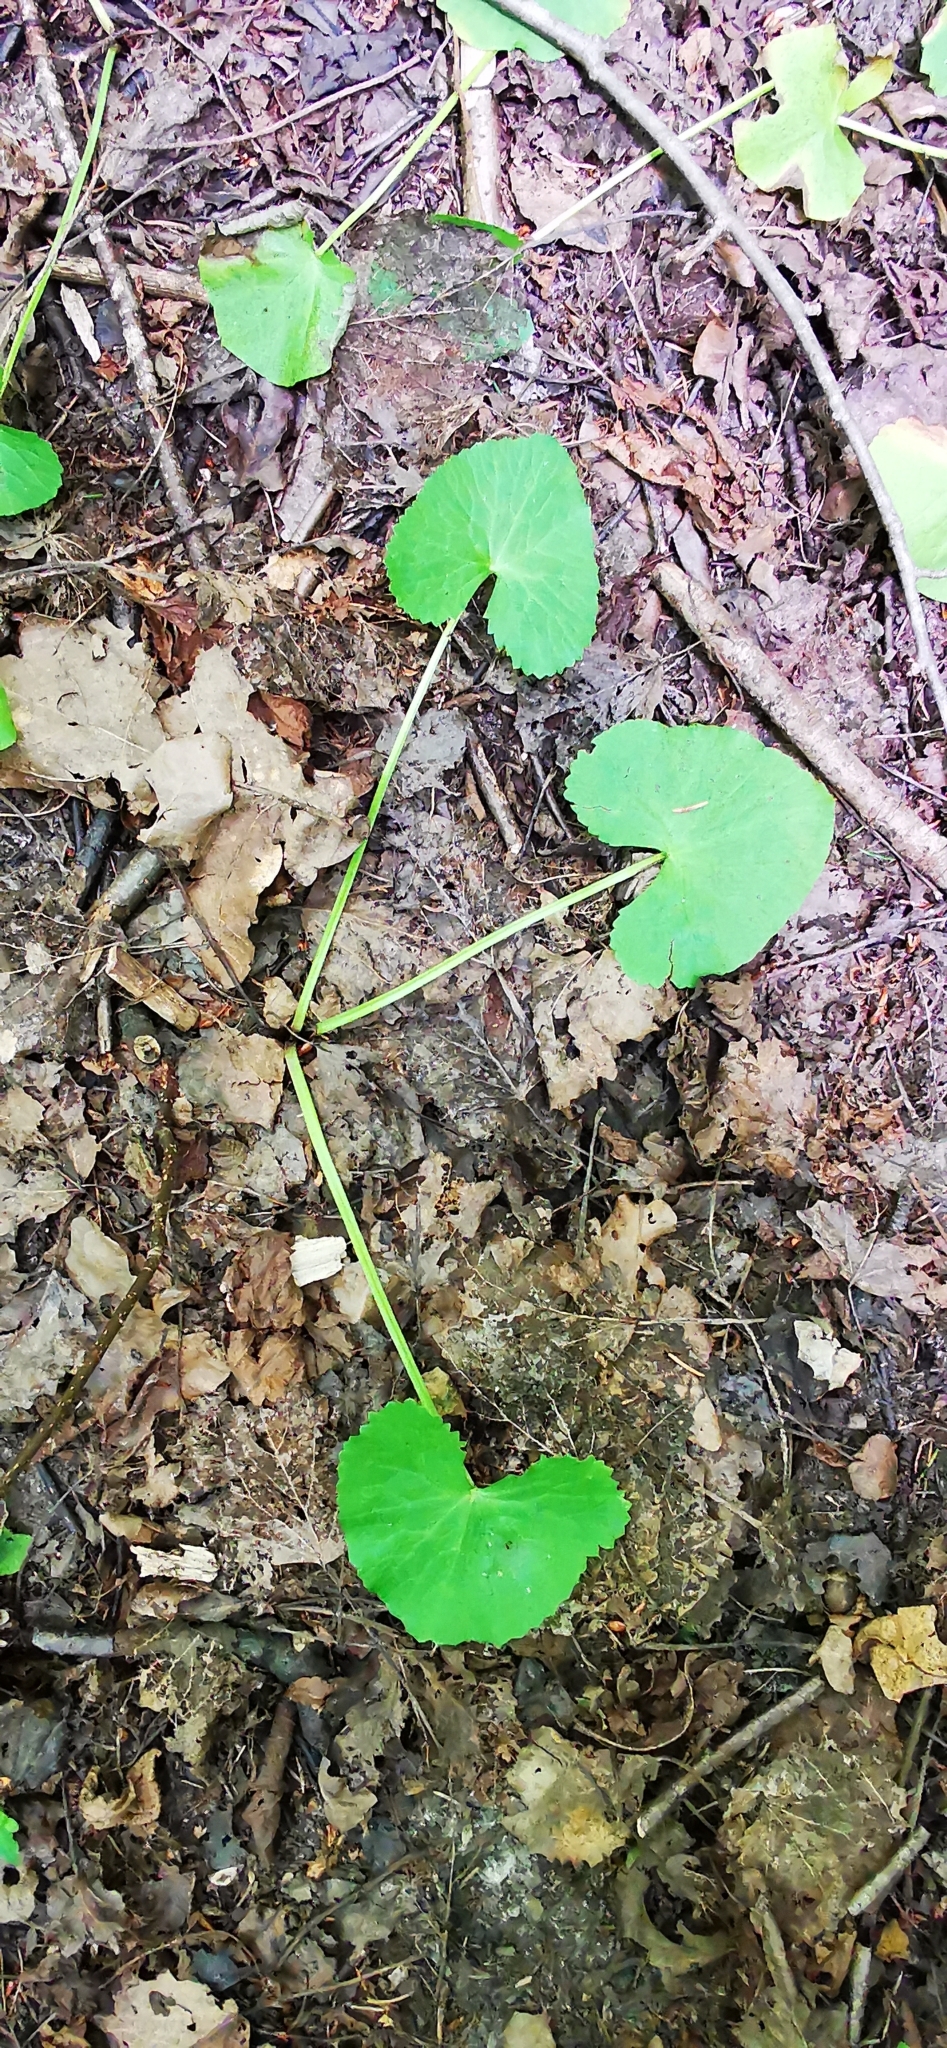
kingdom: Plantae
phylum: Tracheophyta
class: Magnoliopsida
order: Ranunculales
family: Ranunculaceae
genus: Caltha
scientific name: Caltha palustris
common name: Marsh marigold
